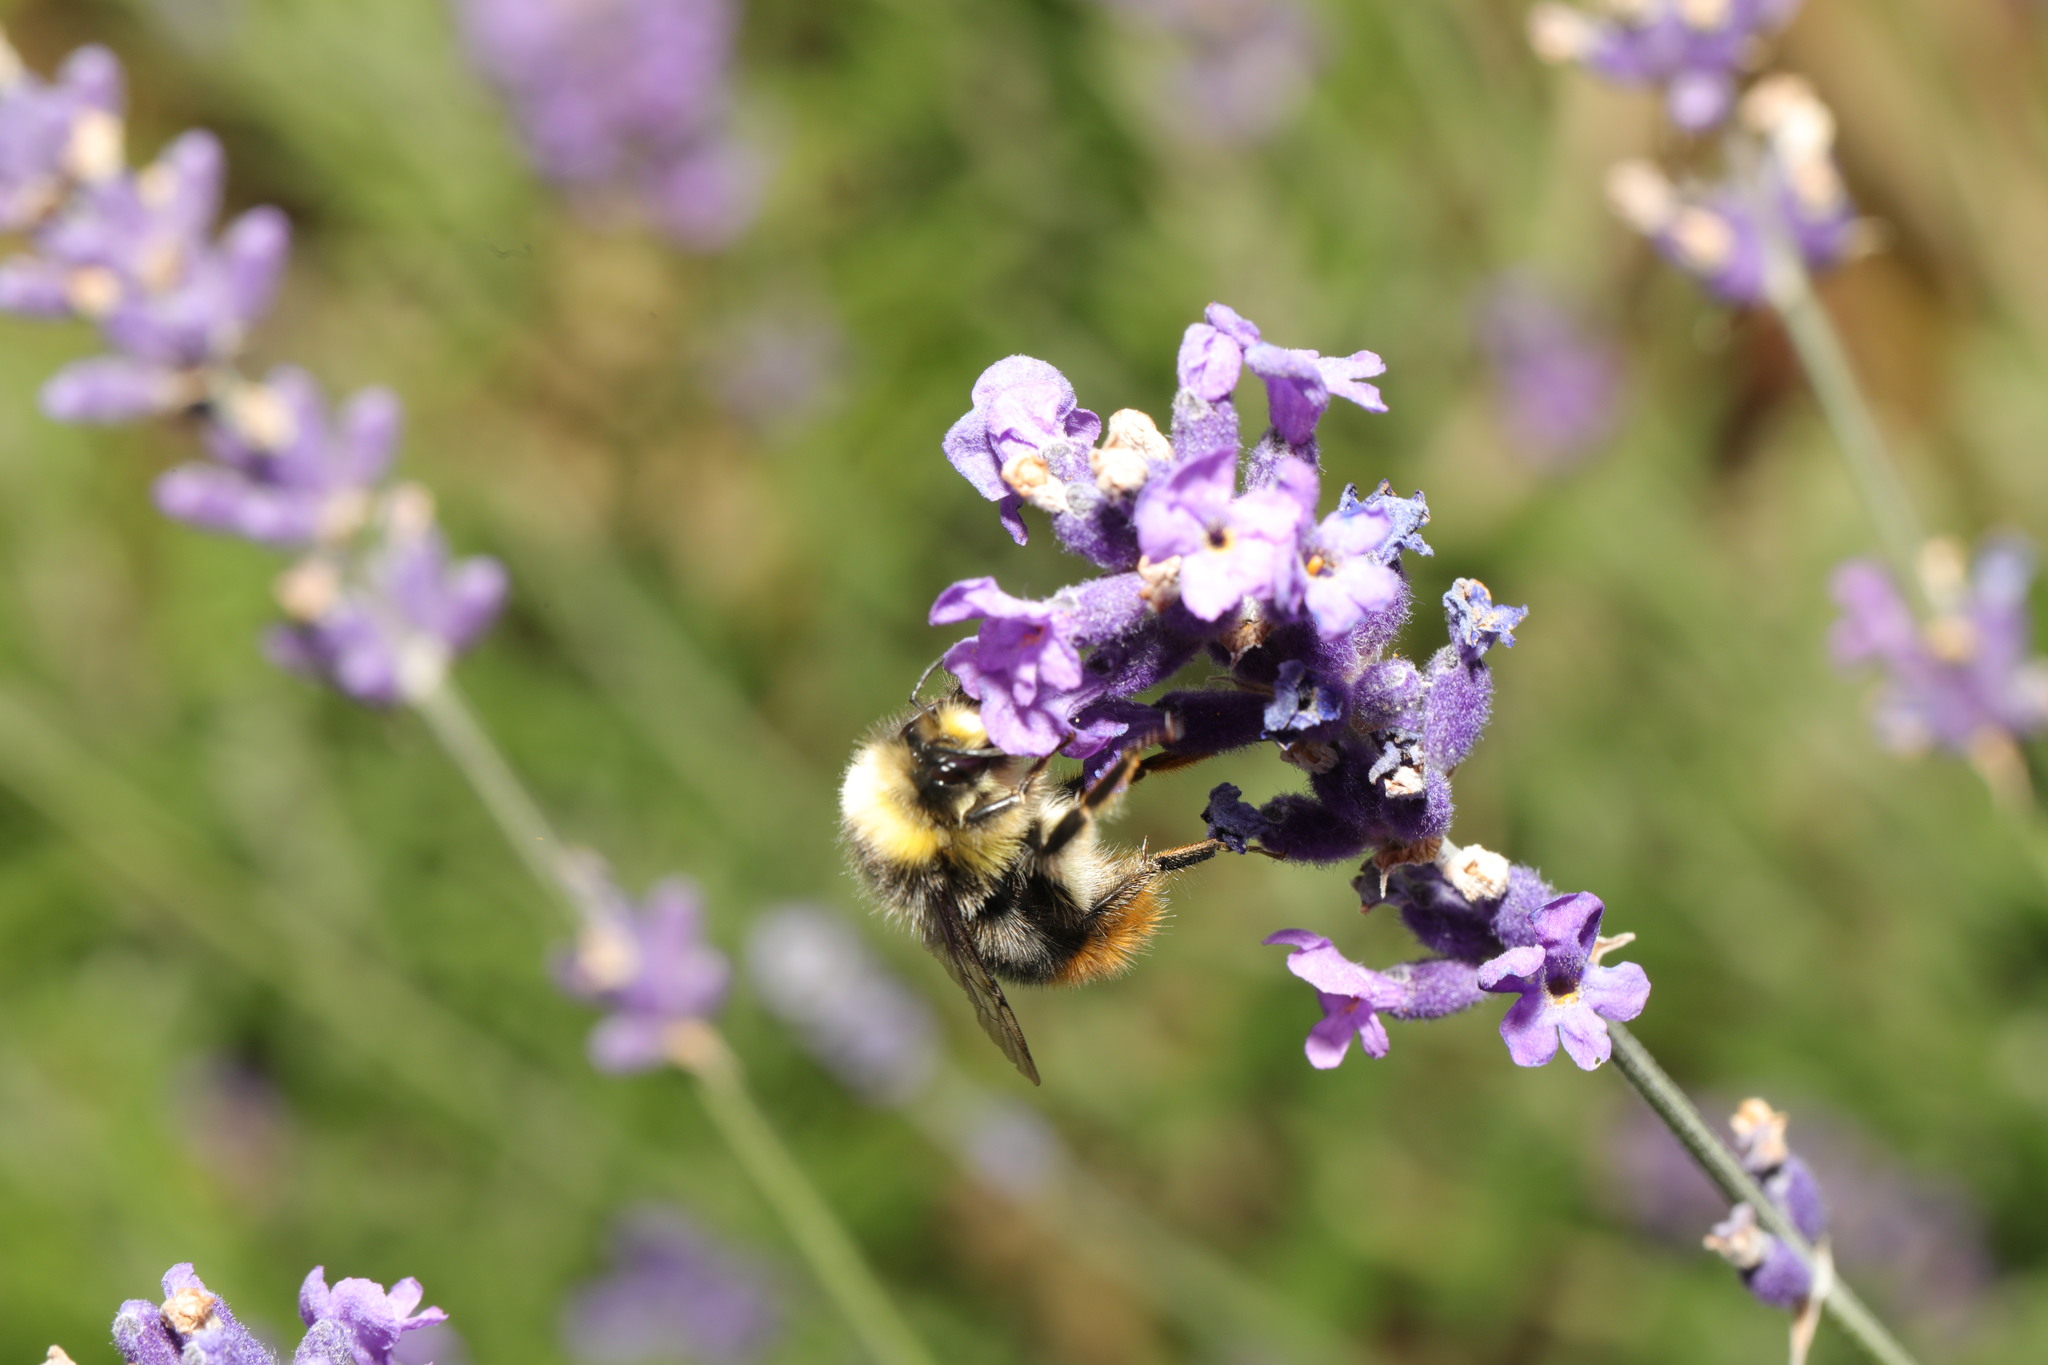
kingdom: Animalia
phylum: Arthropoda
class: Insecta
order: Hymenoptera
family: Apidae
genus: Bombus
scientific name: Bombus lapidarius
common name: Large red-tailed humble-bee
